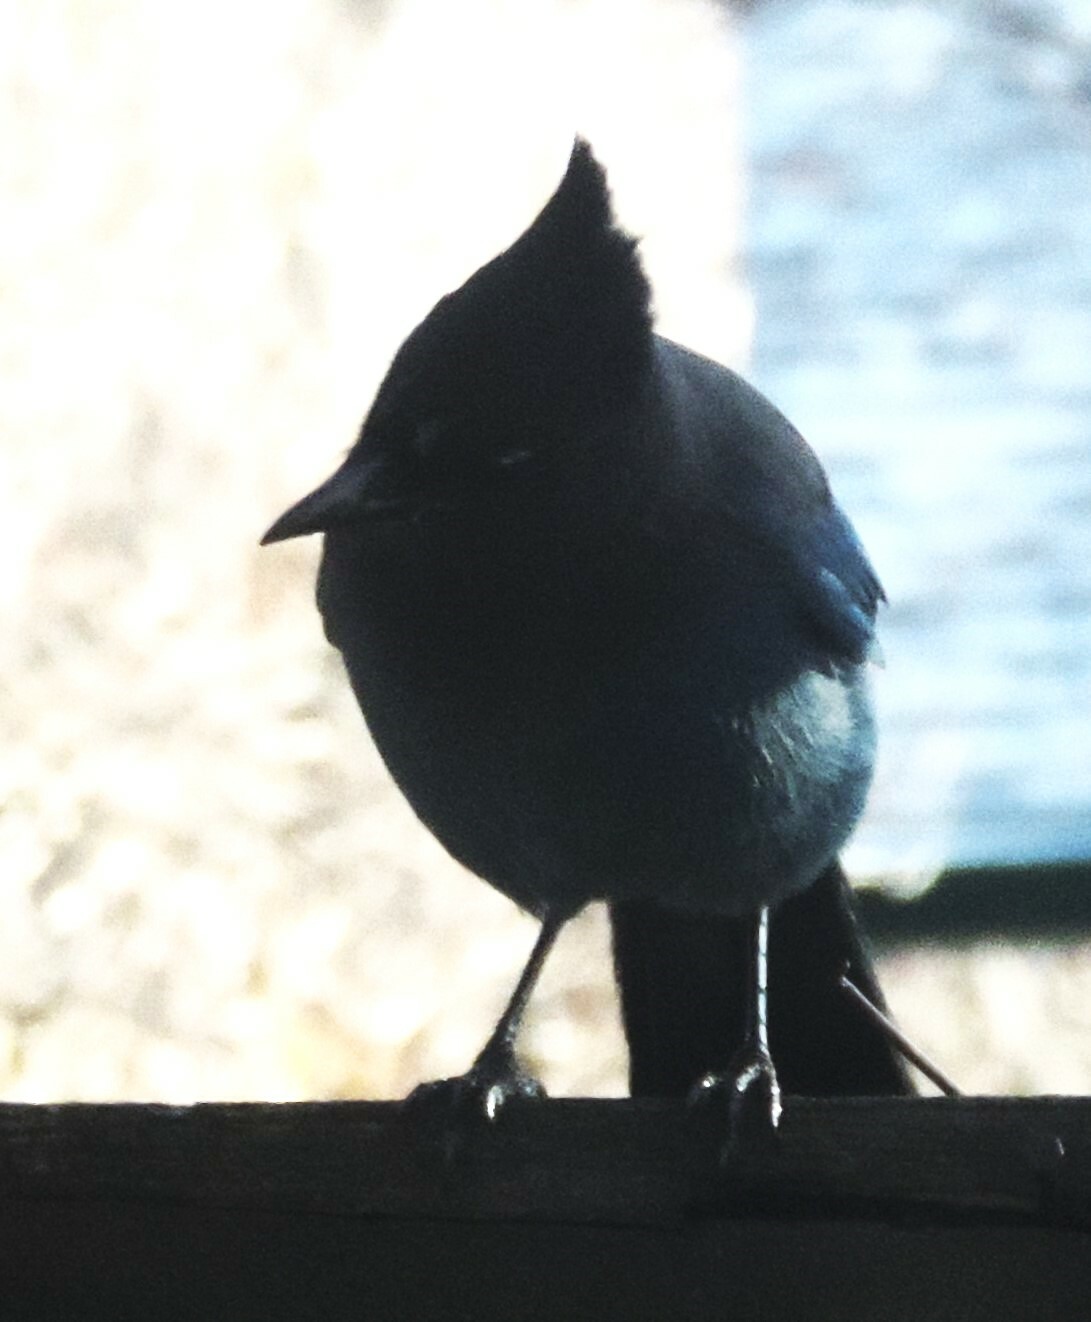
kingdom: Animalia
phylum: Chordata
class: Aves
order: Passeriformes
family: Corvidae
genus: Cyanocitta
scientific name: Cyanocitta stelleri
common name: Steller's jay
